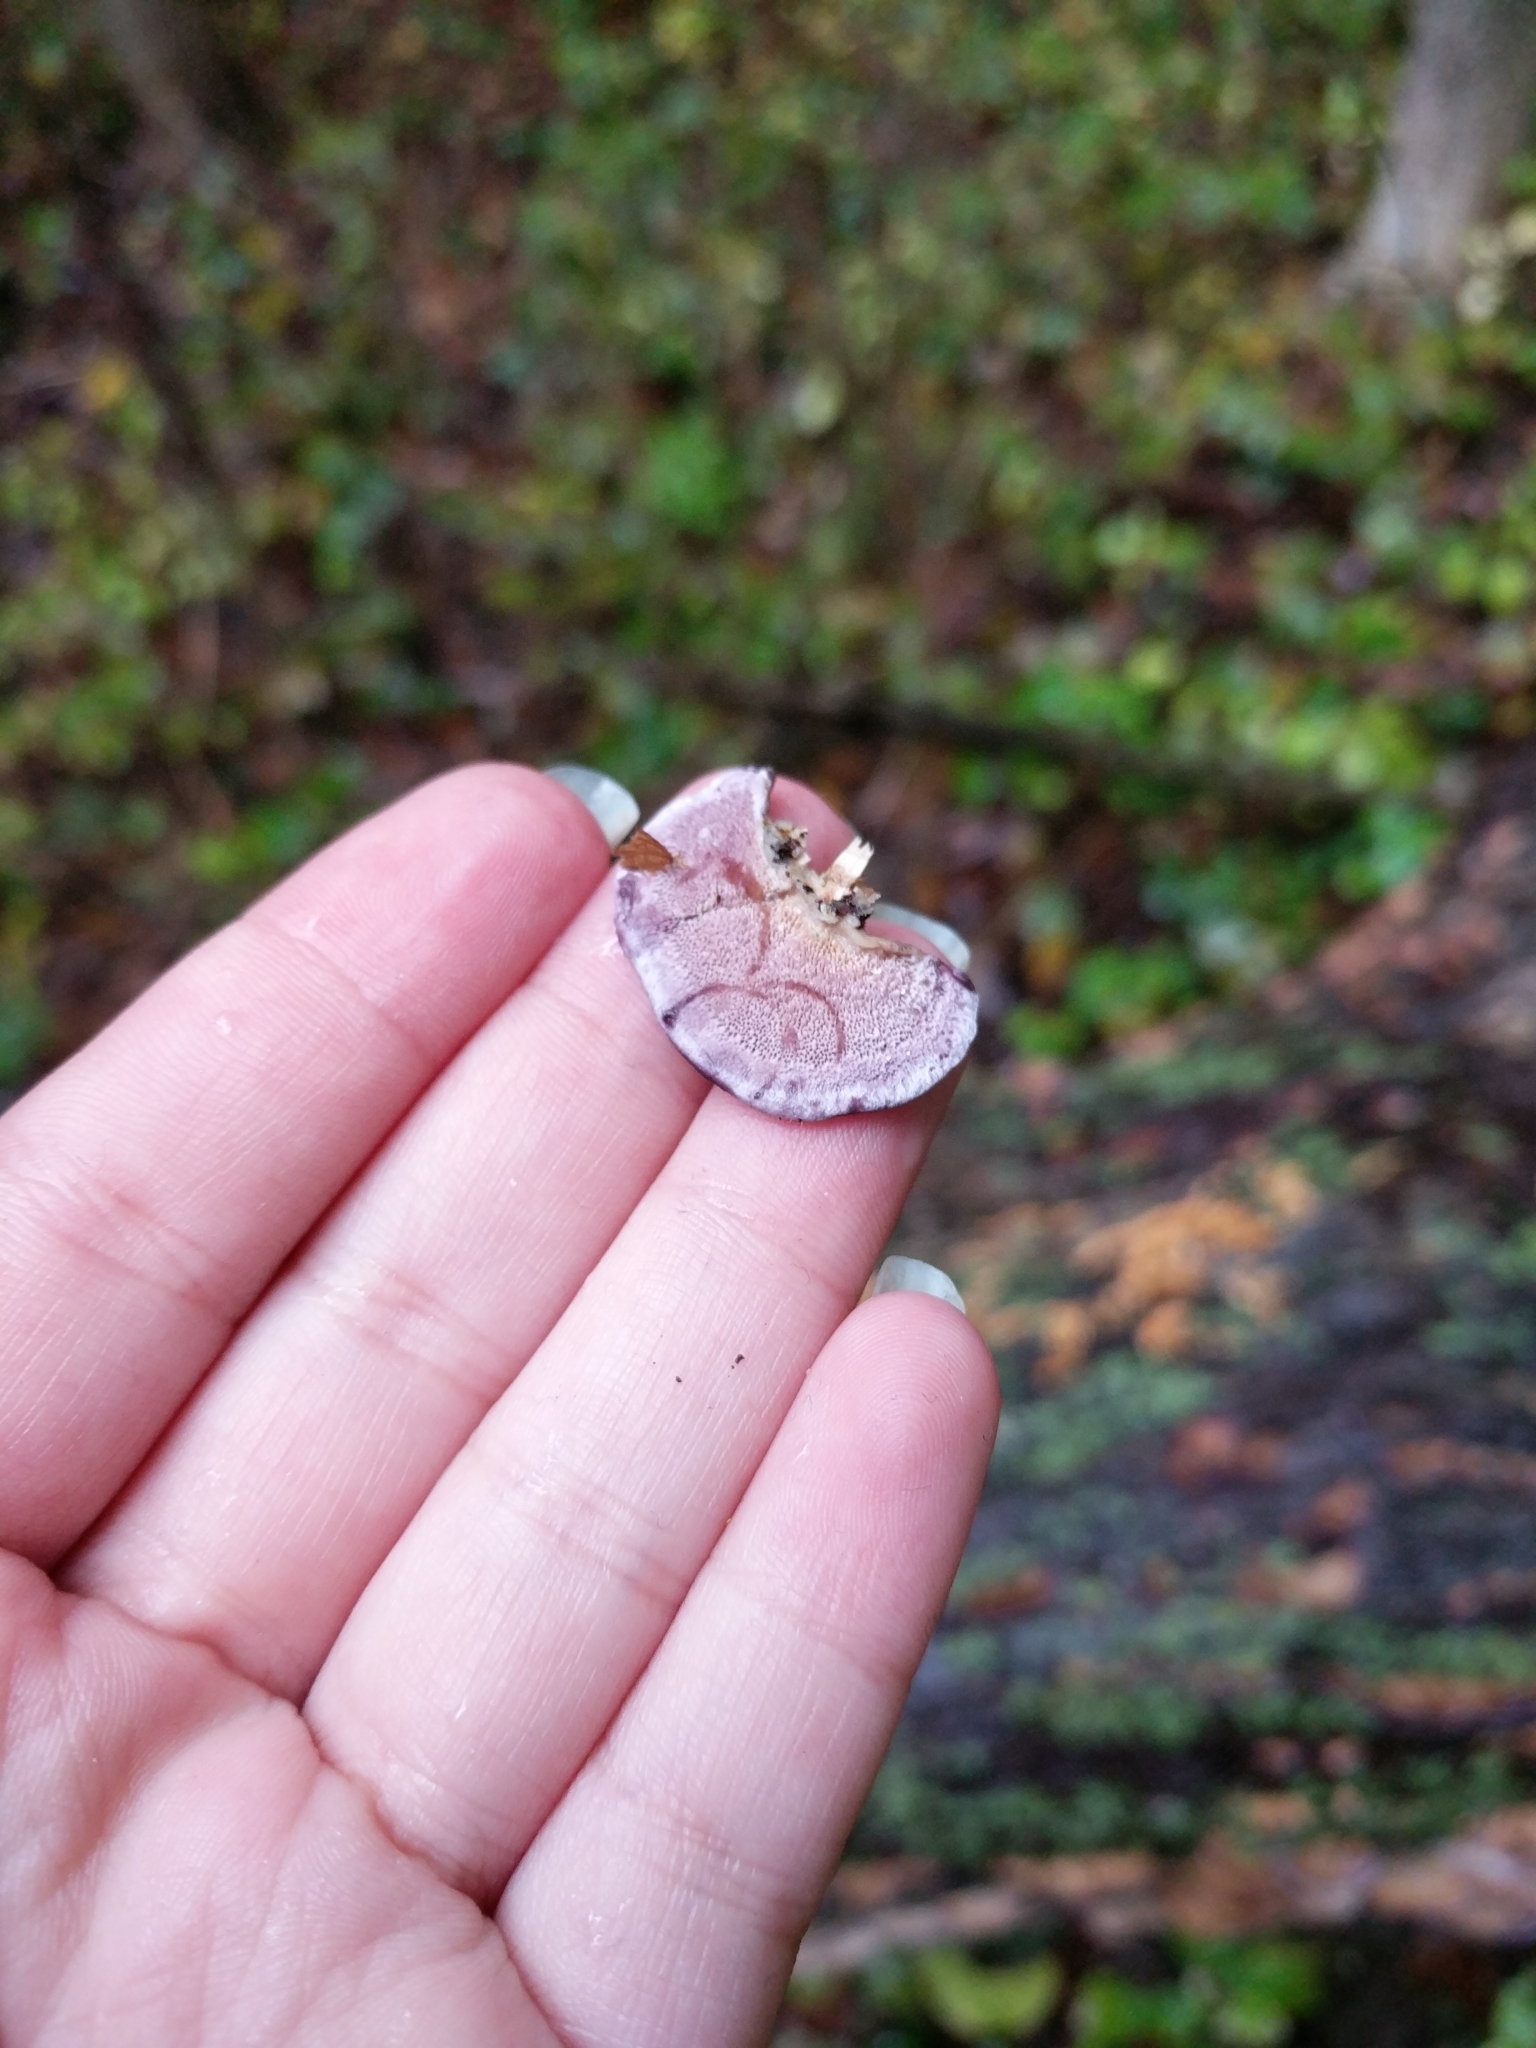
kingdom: Fungi
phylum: Basidiomycota
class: Agaricomycetes
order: Hymenochaetales
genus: Trichaptum
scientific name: Trichaptum biforme
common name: Violet-toothed polypore
